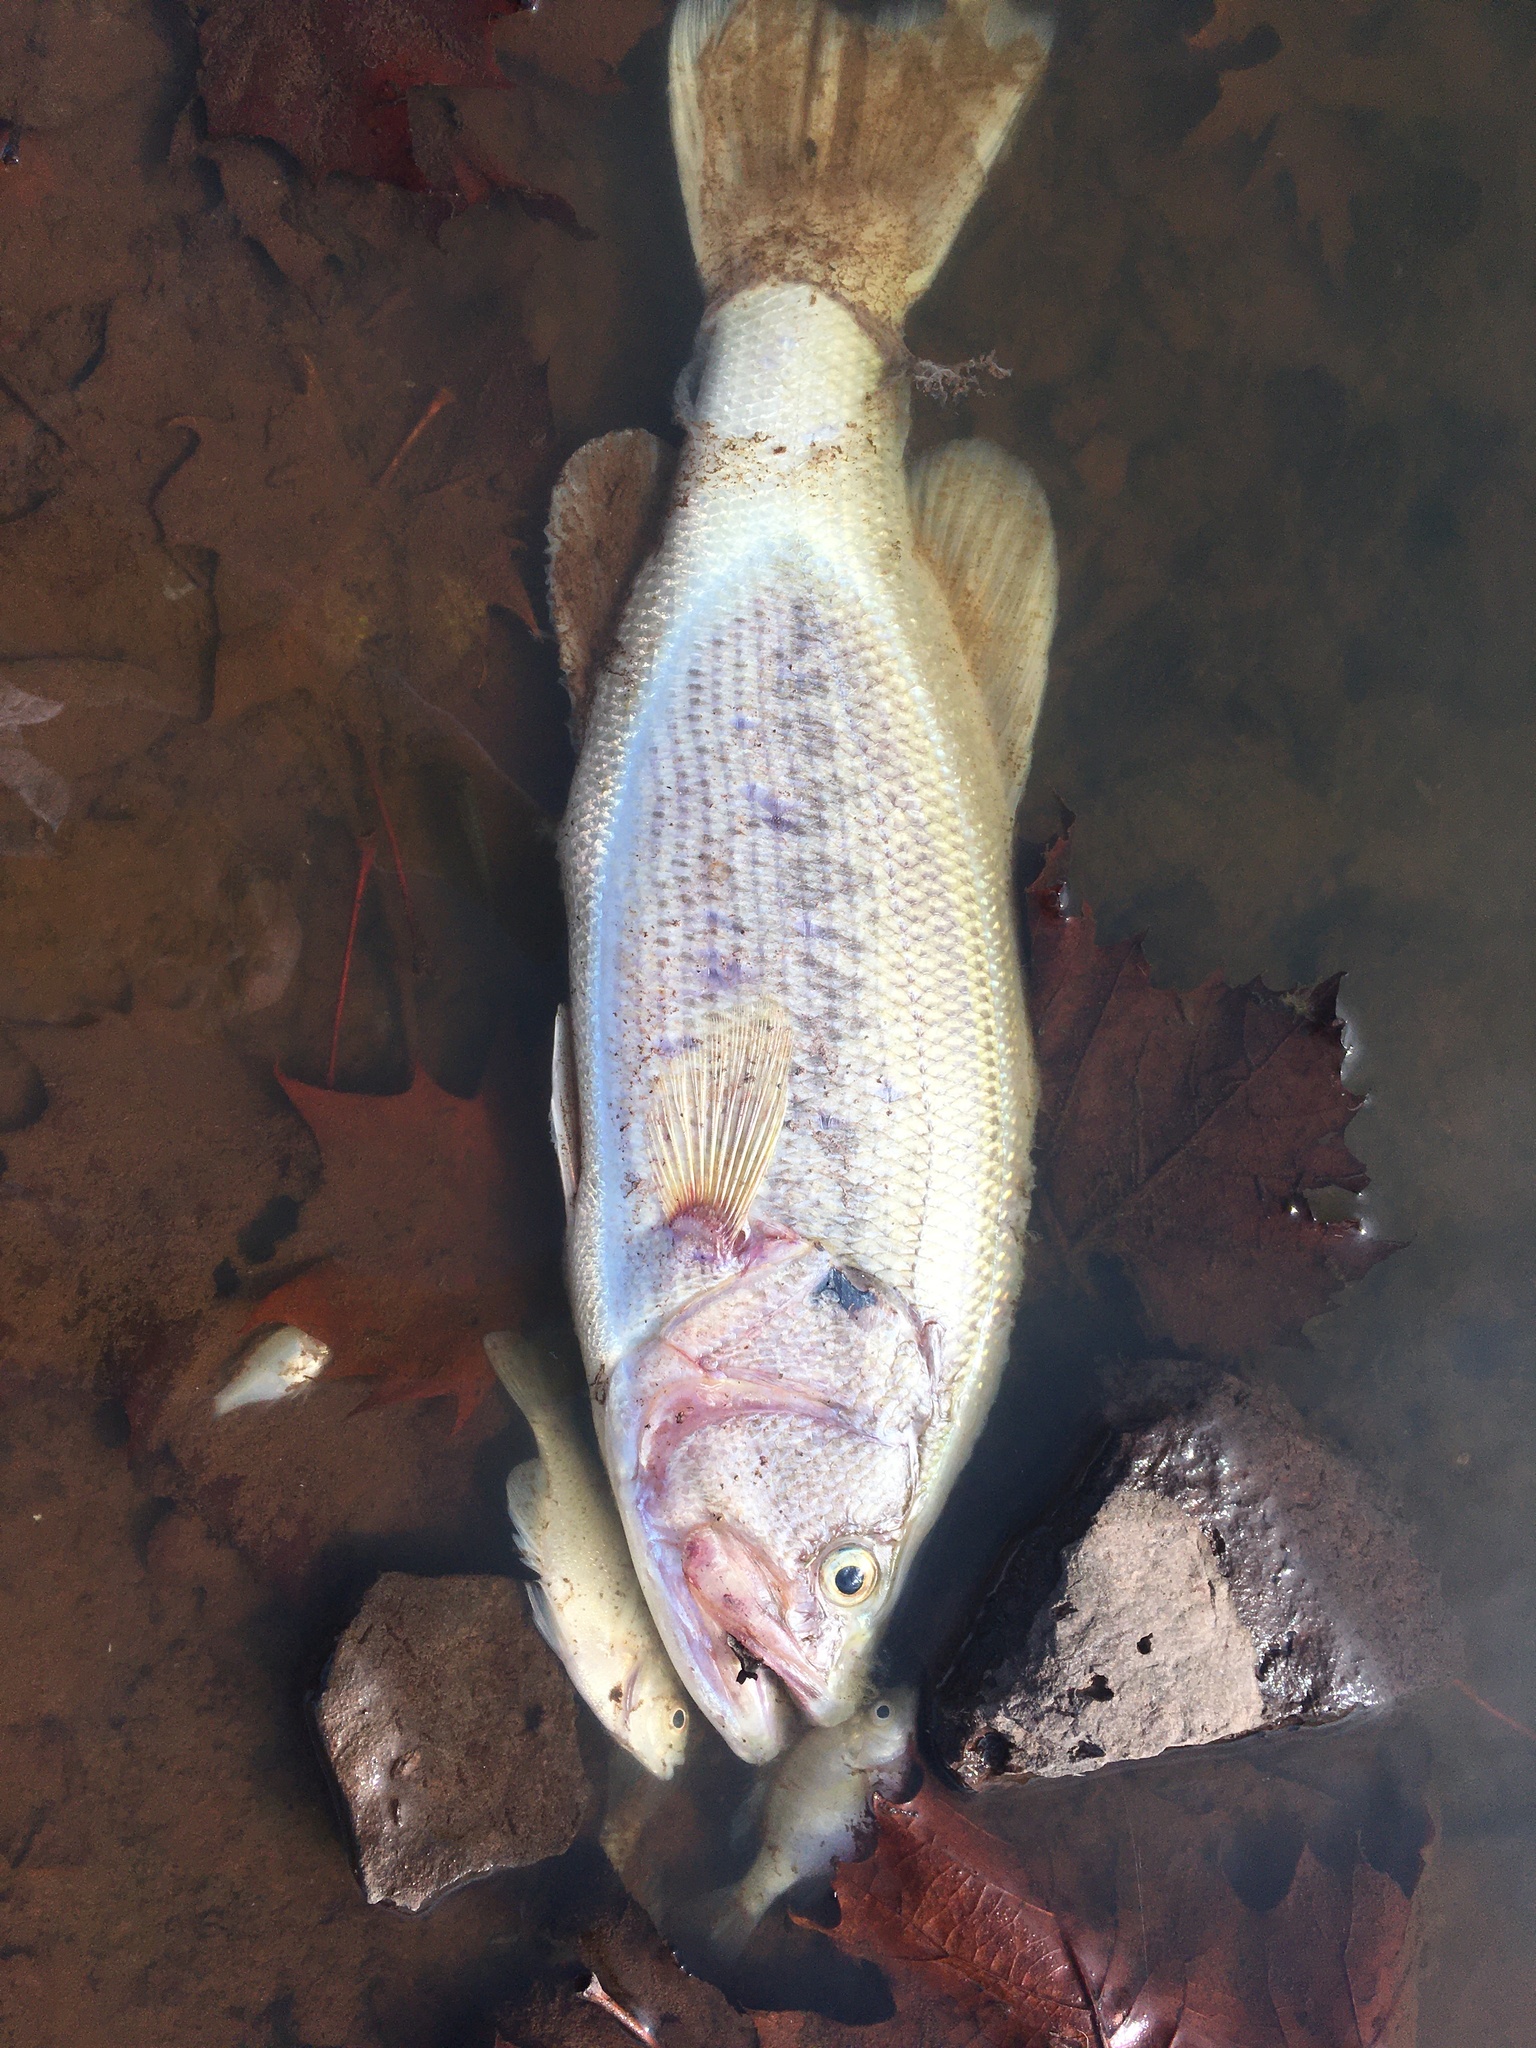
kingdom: Animalia
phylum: Chordata
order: Perciformes
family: Centrarchidae
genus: Micropterus
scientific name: Micropterus
